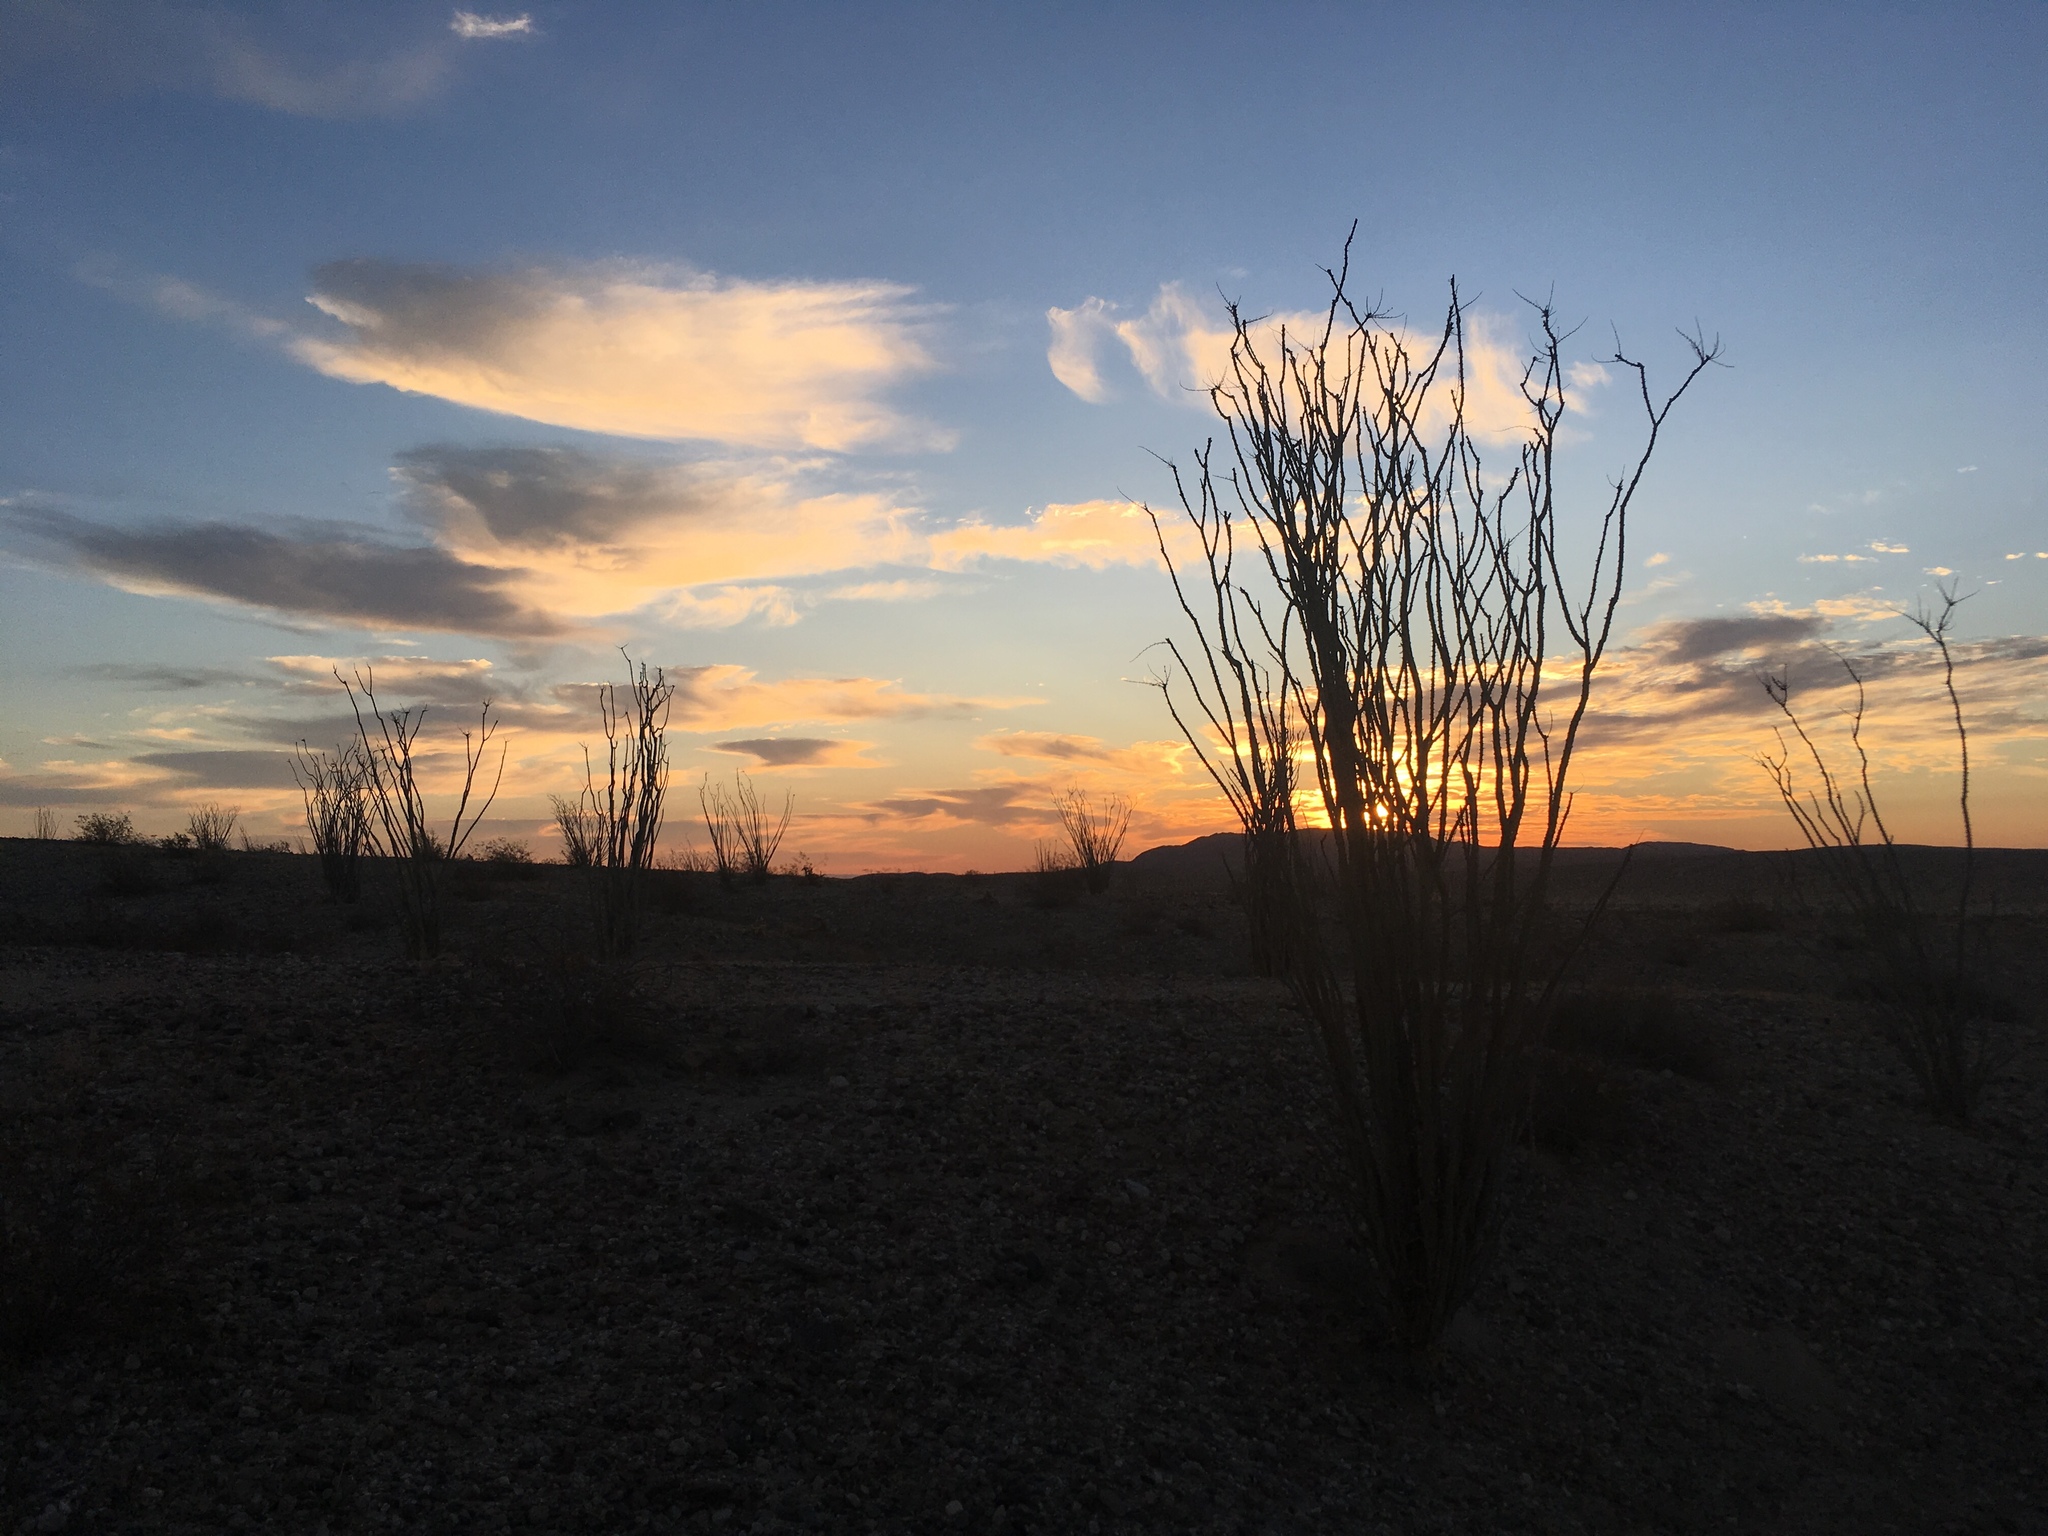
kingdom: Plantae
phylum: Tracheophyta
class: Magnoliopsida
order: Ericales
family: Fouquieriaceae
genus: Fouquieria
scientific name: Fouquieria splendens
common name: Vine-cactus
